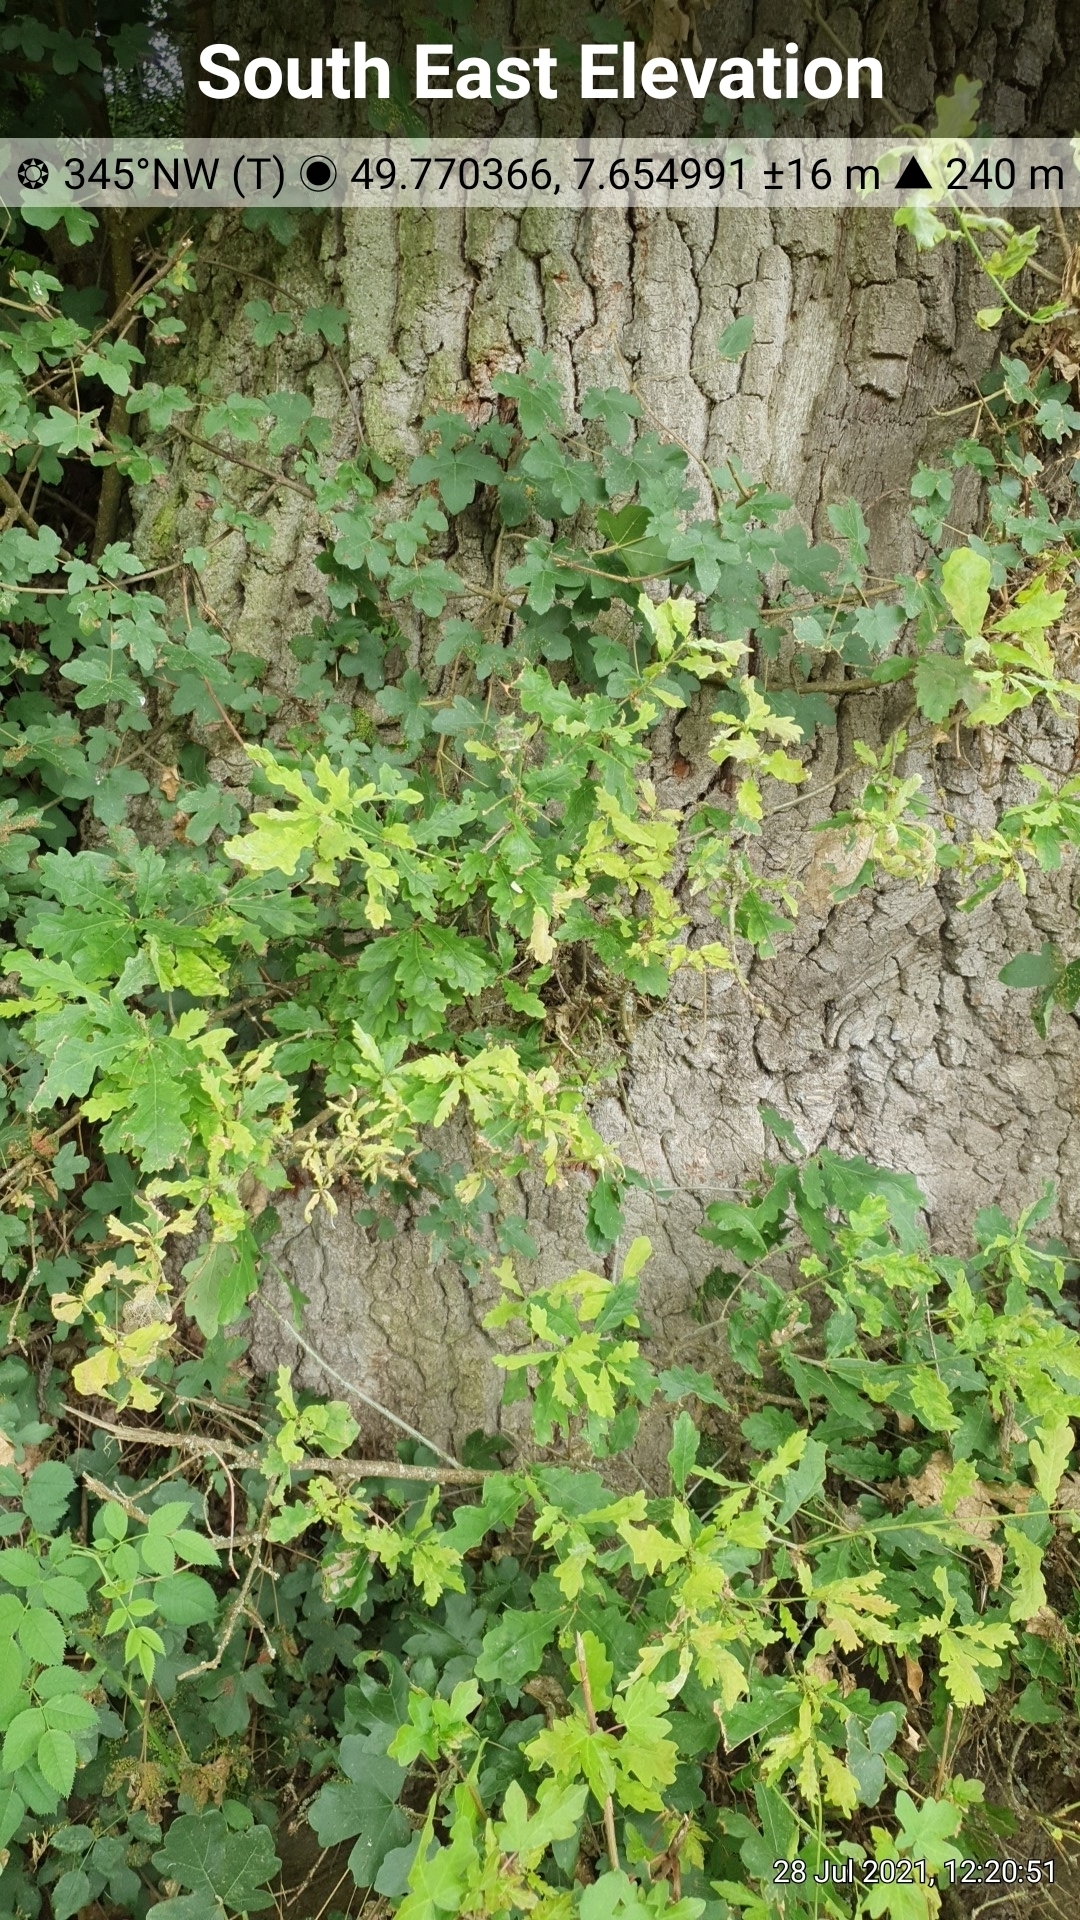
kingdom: Animalia
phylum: Arthropoda
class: Insecta
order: Lepidoptera
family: Nymphalidae
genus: Maniola
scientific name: Maniola jurtina
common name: Meadow brown
